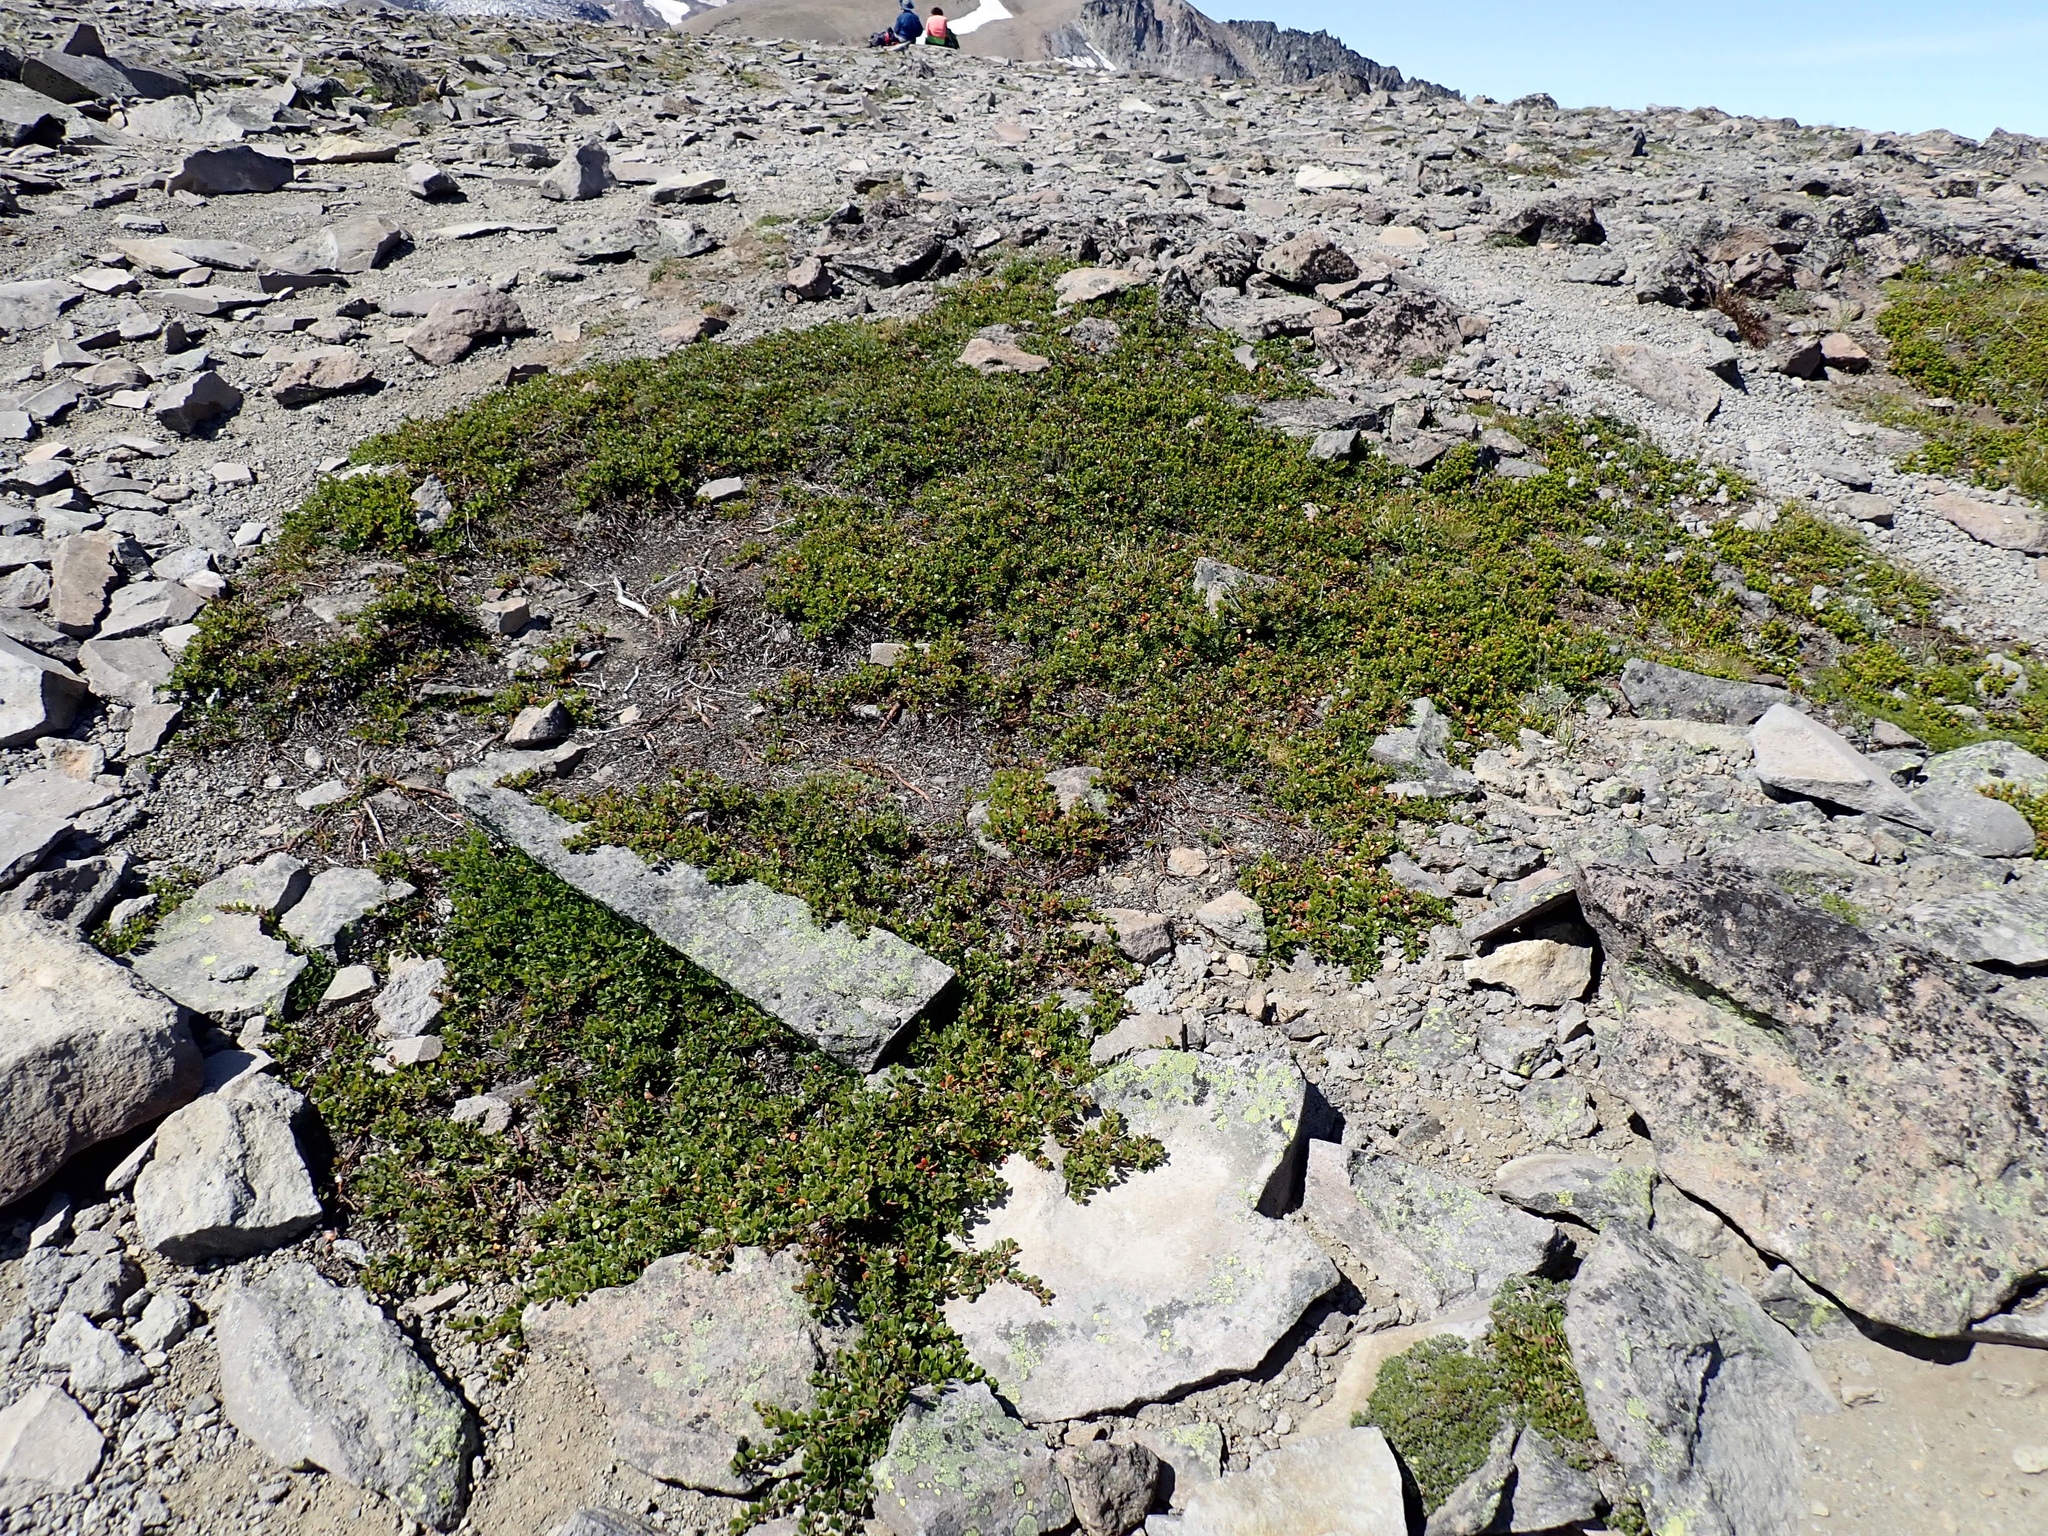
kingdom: Plantae
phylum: Tracheophyta
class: Magnoliopsida
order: Ericales
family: Ericaceae
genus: Arctostaphylos
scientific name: Arctostaphylos nevadensis
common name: Pinemat manzanita
